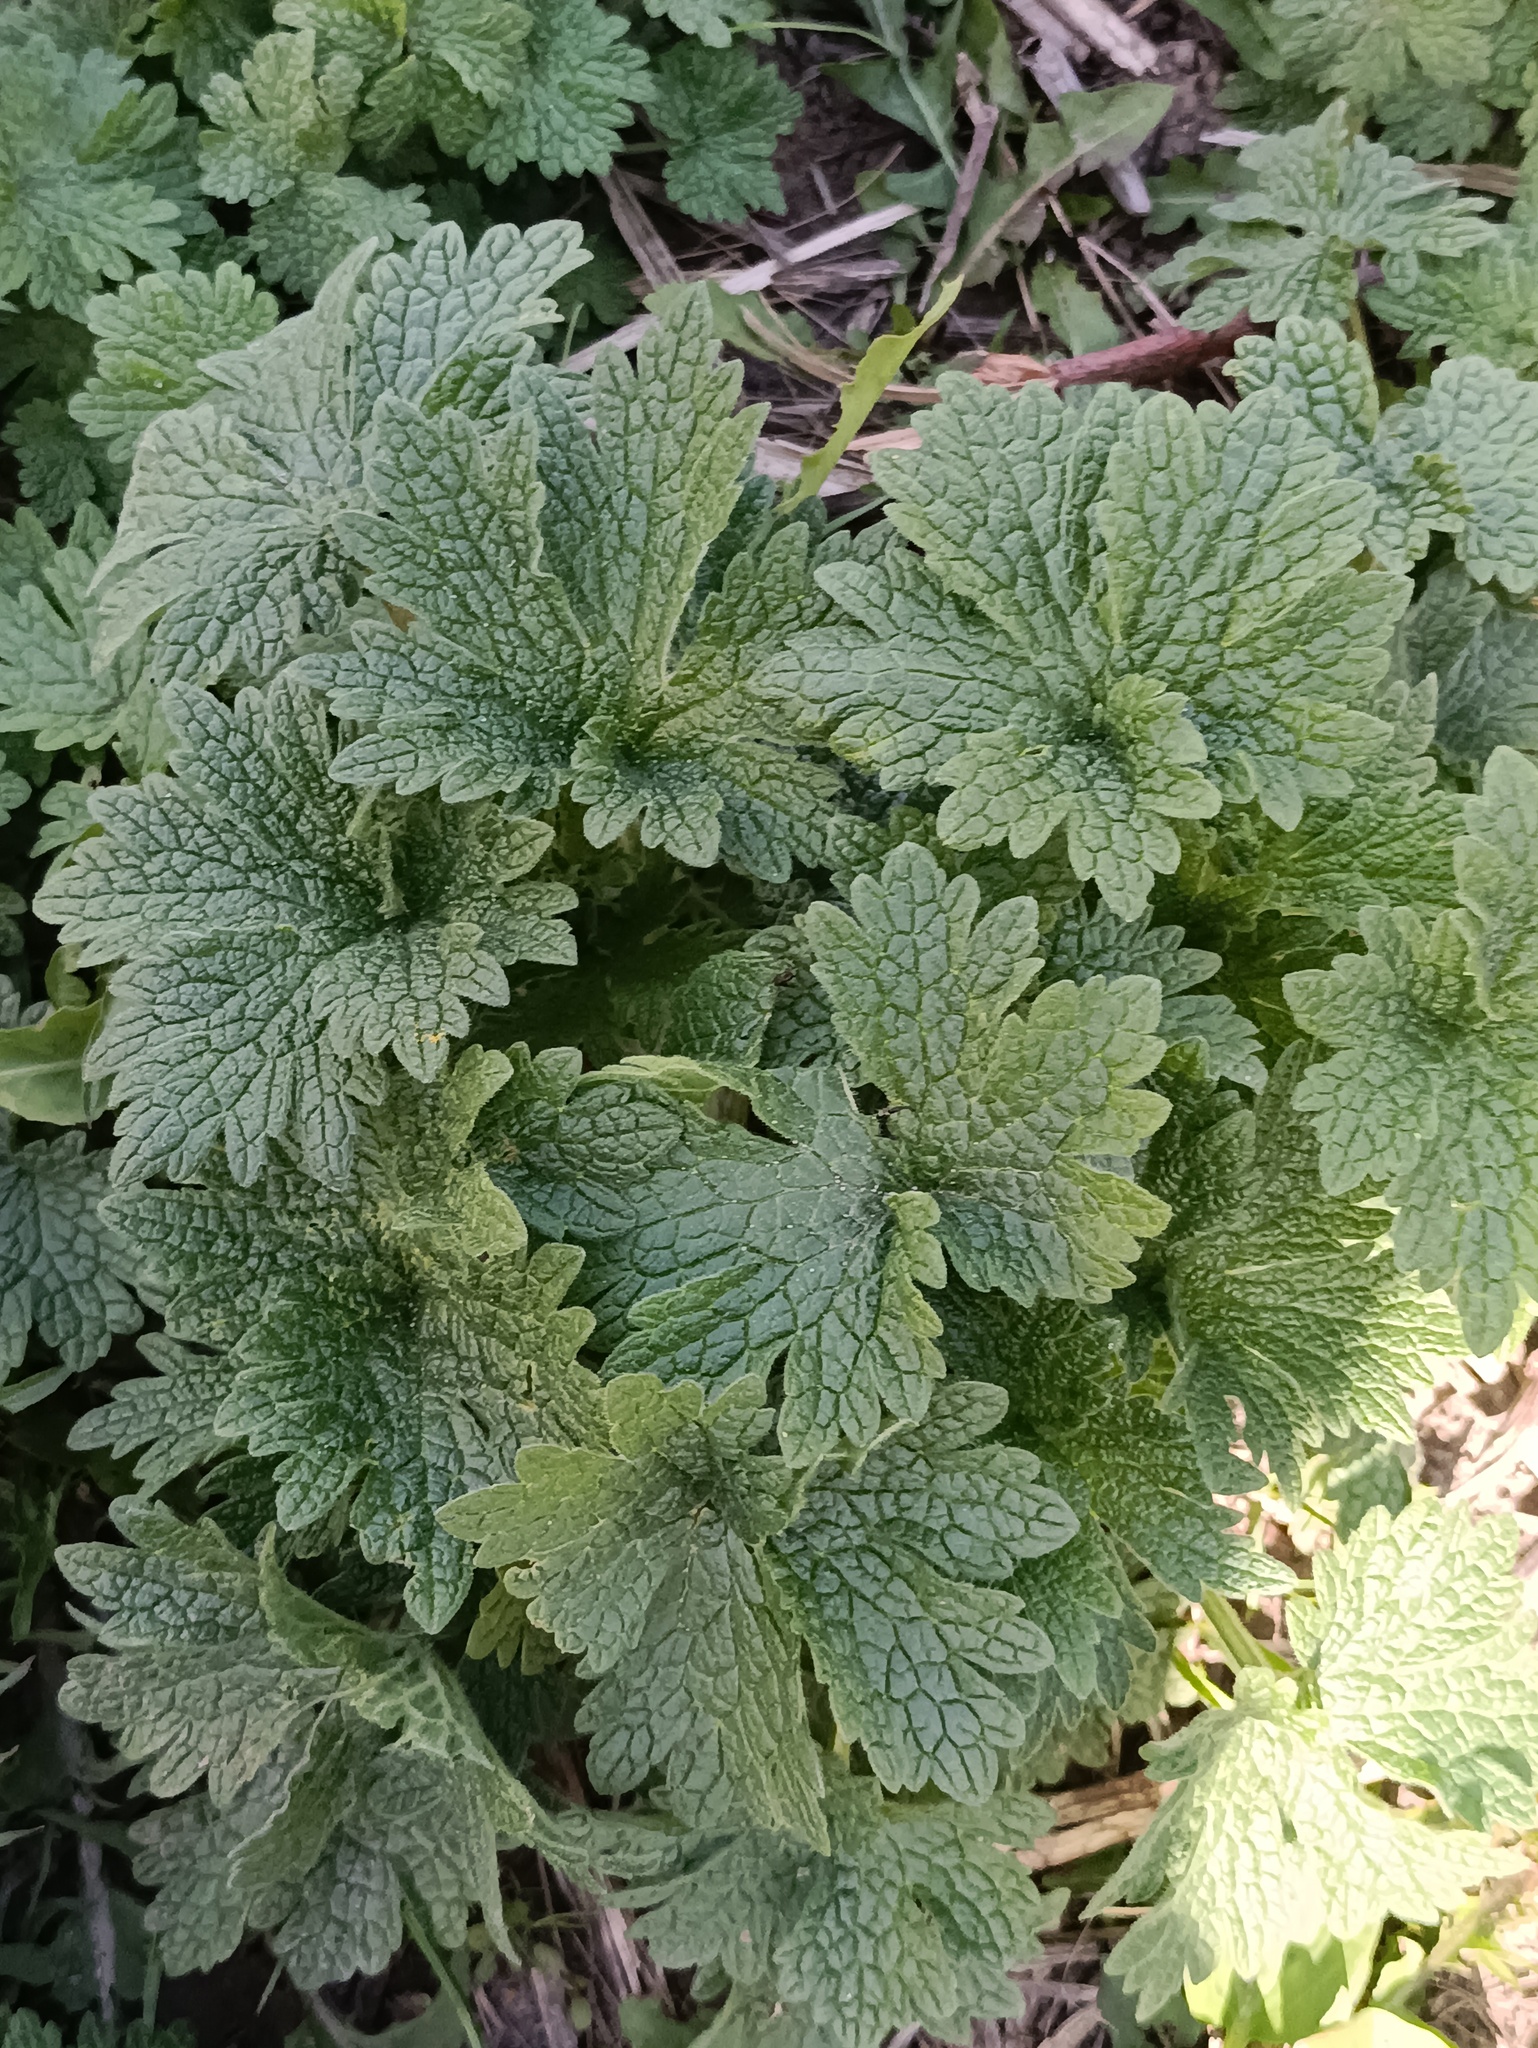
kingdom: Plantae
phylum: Tracheophyta
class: Magnoliopsida
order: Lamiales
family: Lamiaceae
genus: Leonurus
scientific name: Leonurus quinquelobatus
